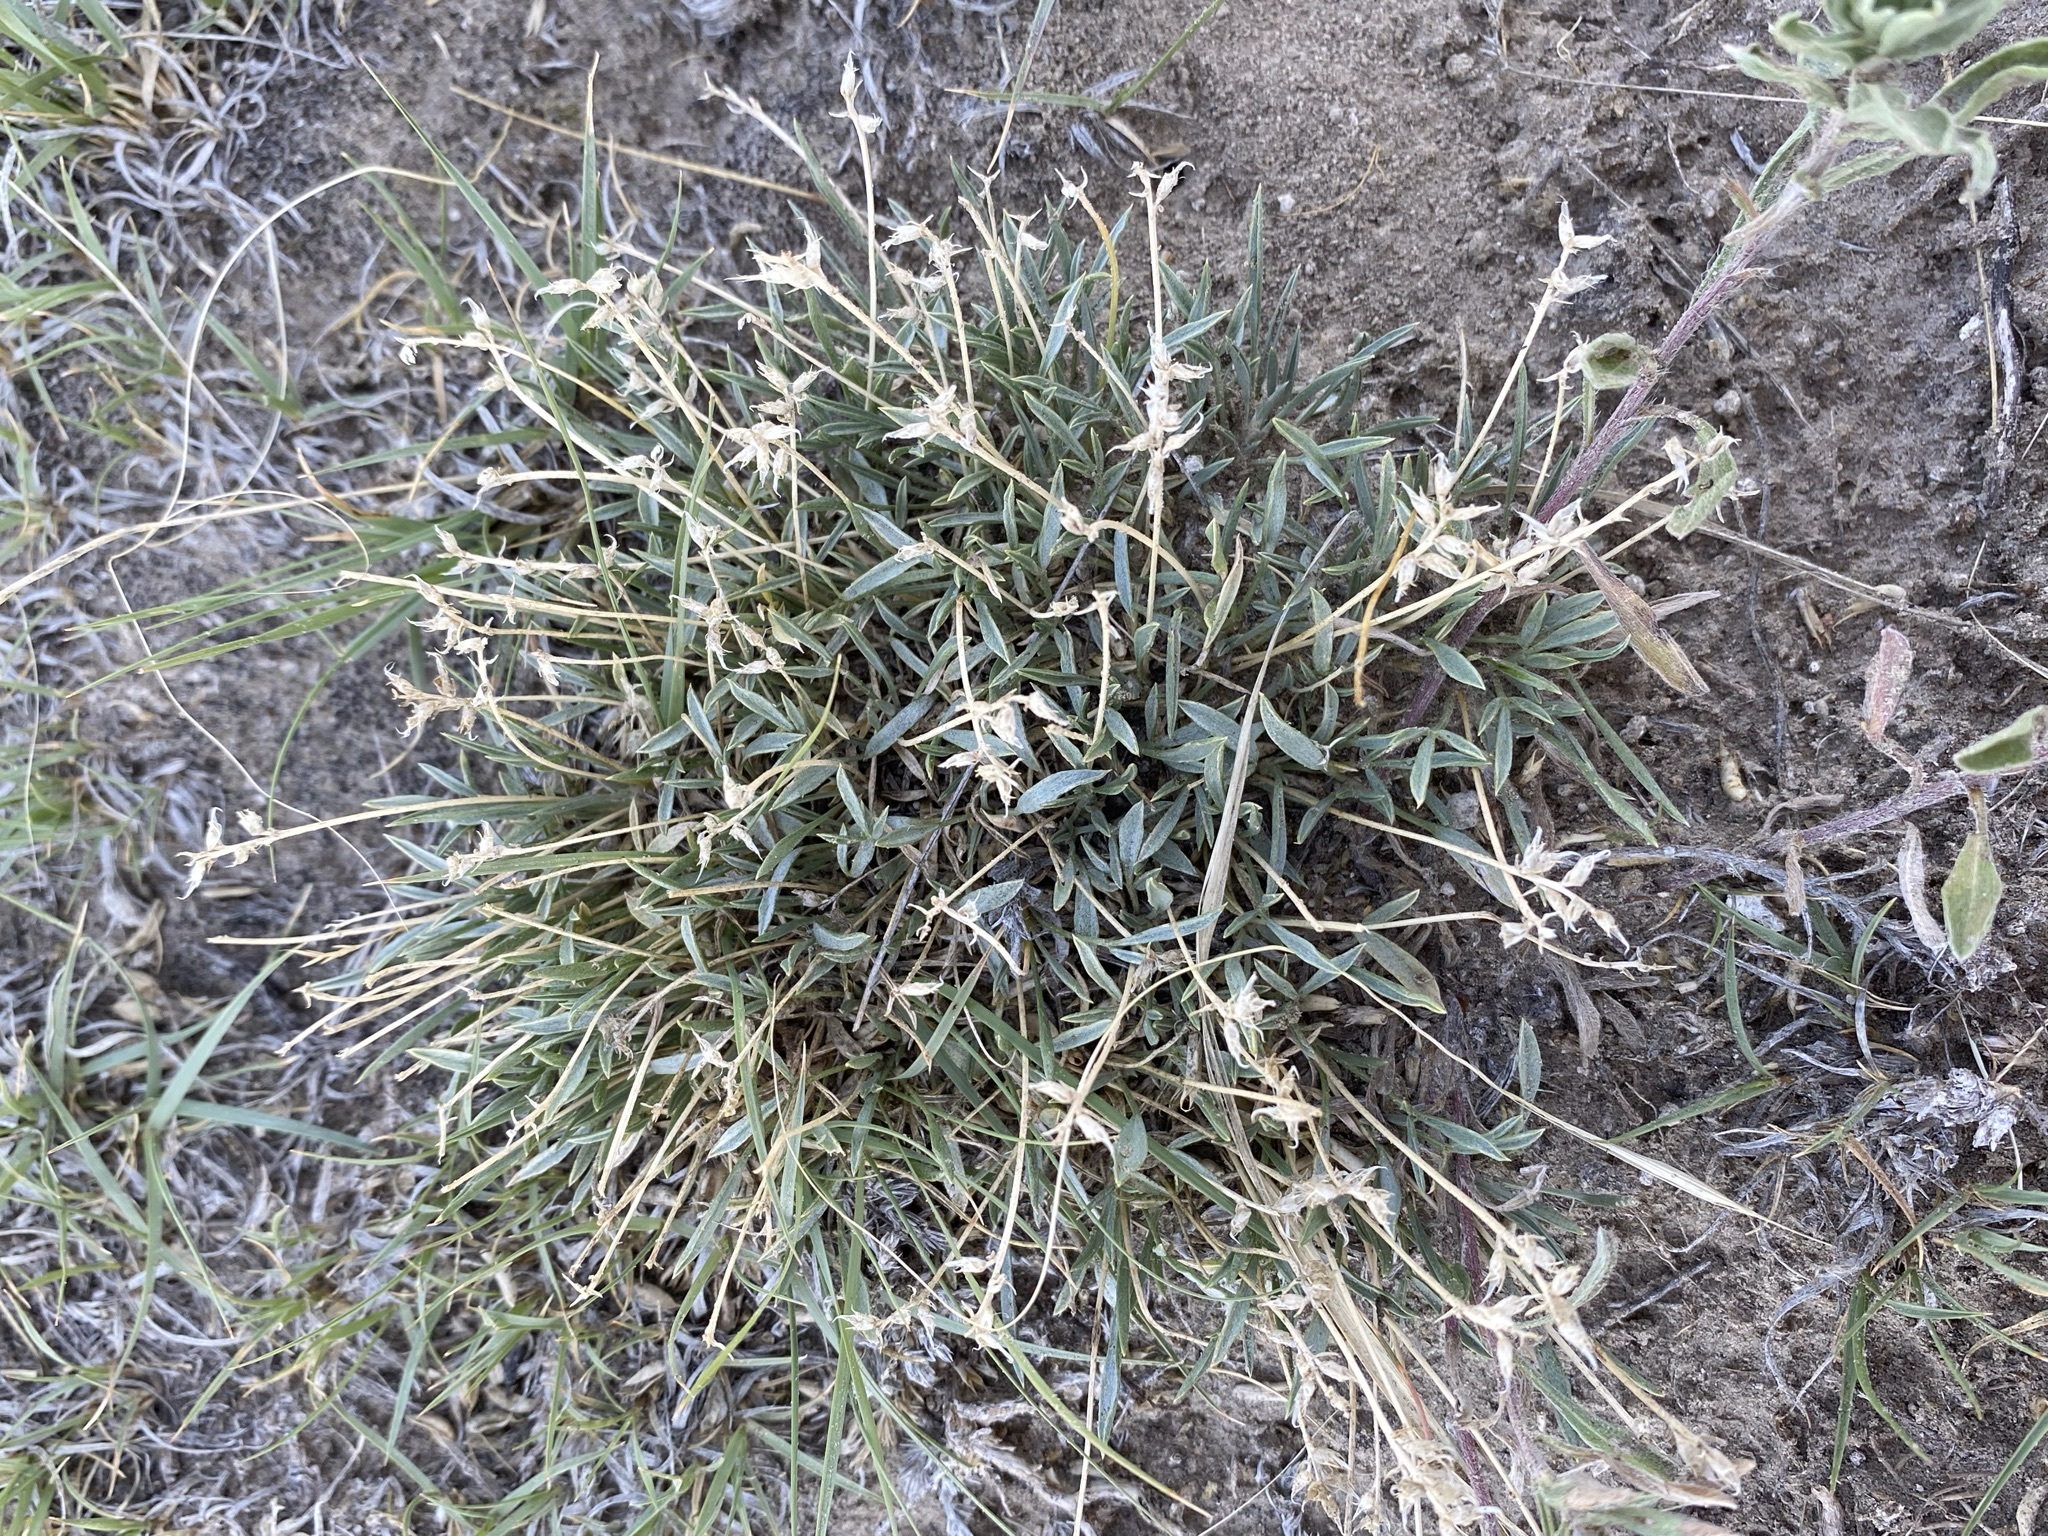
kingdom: Plantae
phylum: Tracheophyta
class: Magnoliopsida
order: Fabales
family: Fabaceae
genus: Astragalus
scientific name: Astragalus spatulatus
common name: Draba milk-vetch
